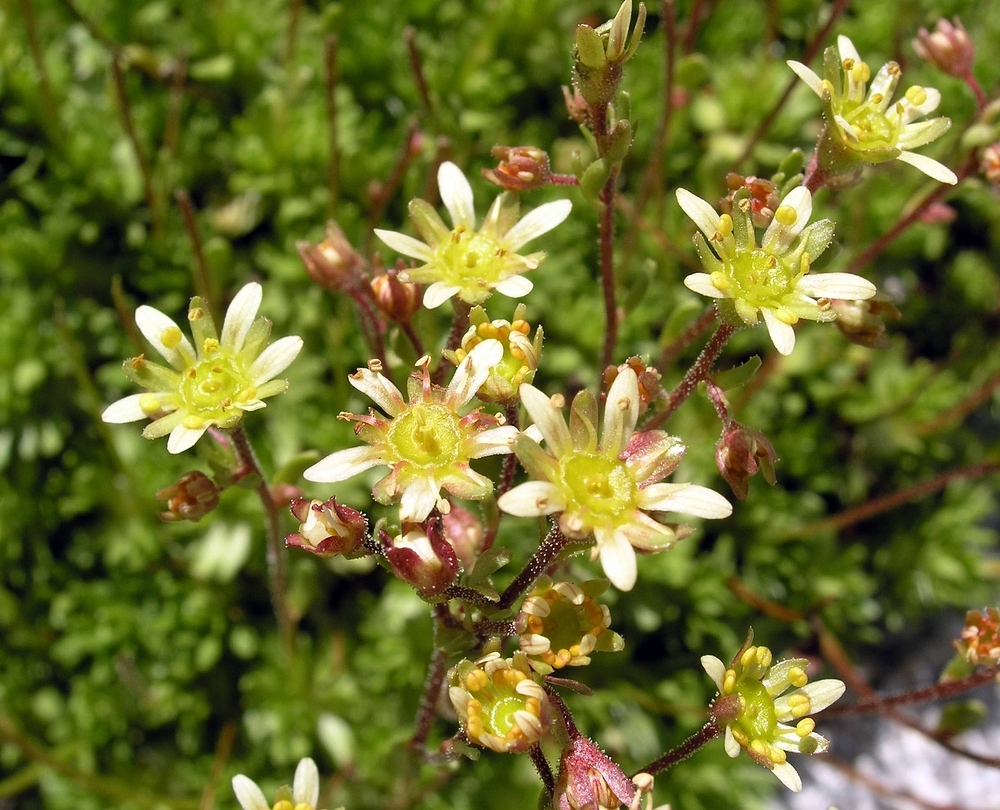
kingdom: Plantae
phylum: Tracheophyta
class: Magnoliopsida
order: Saxifragales
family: Saxifragaceae
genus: Saxifraga
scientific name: Saxifraga moschata
